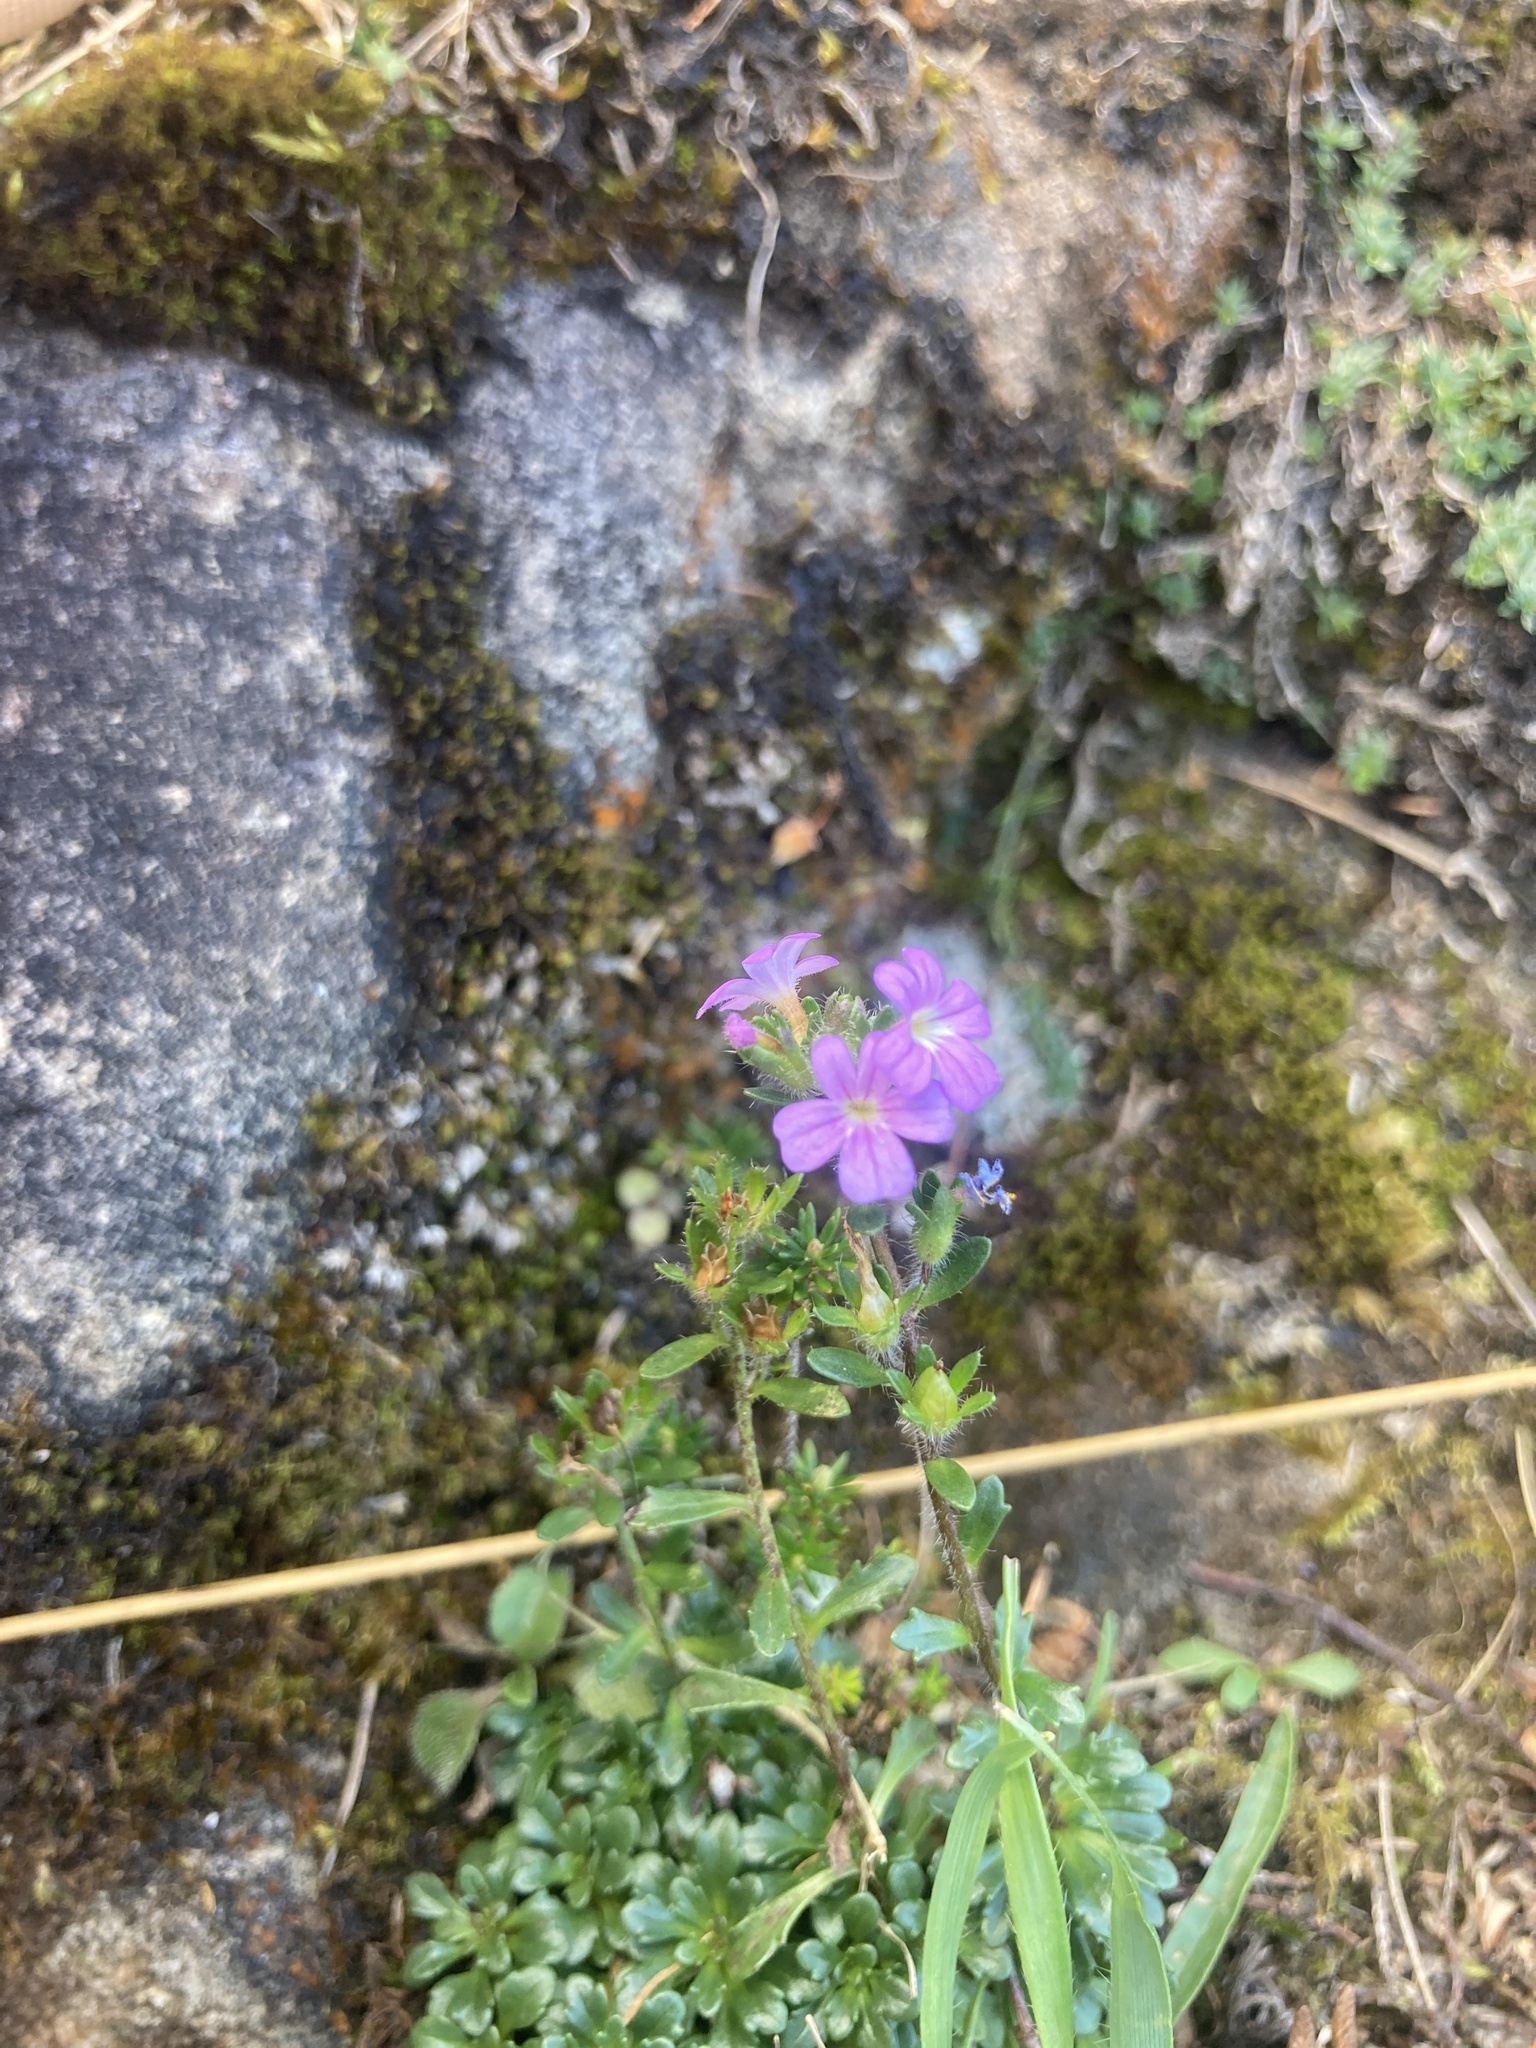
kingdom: Plantae
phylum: Tracheophyta
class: Magnoliopsida
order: Lamiales
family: Plantaginaceae
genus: Erinus
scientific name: Erinus alpinus
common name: Fairy foxglove
